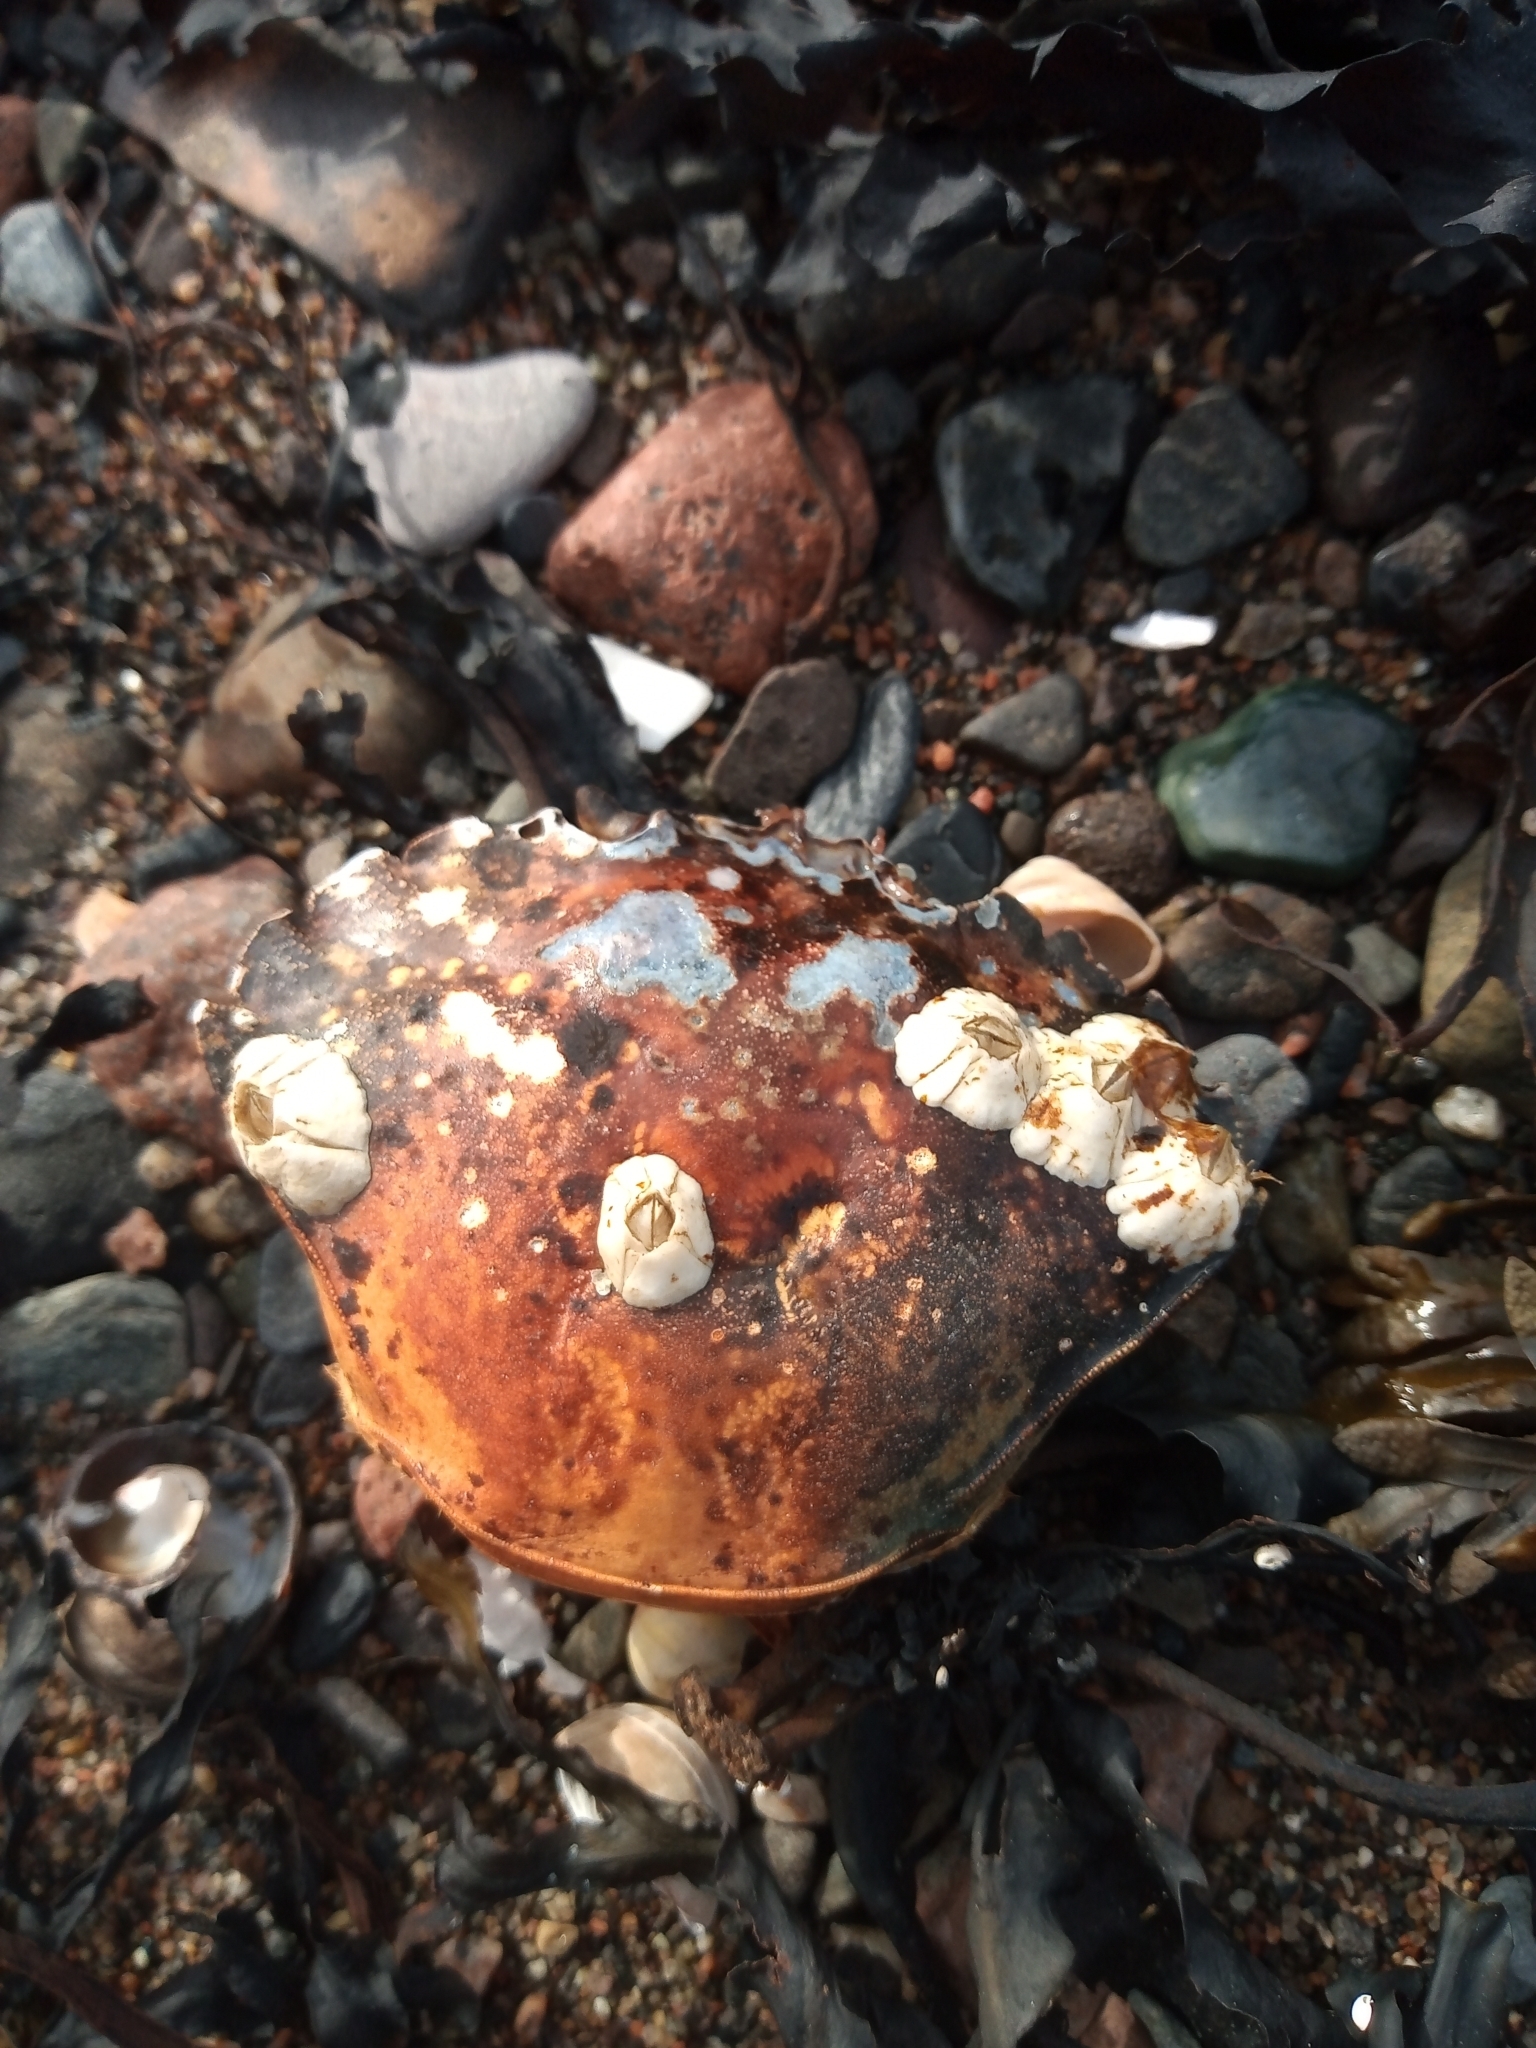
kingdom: Animalia
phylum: Arthropoda
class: Malacostraca
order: Decapoda
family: Carcinidae
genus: Carcinus
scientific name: Carcinus maenas
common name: European green crab
